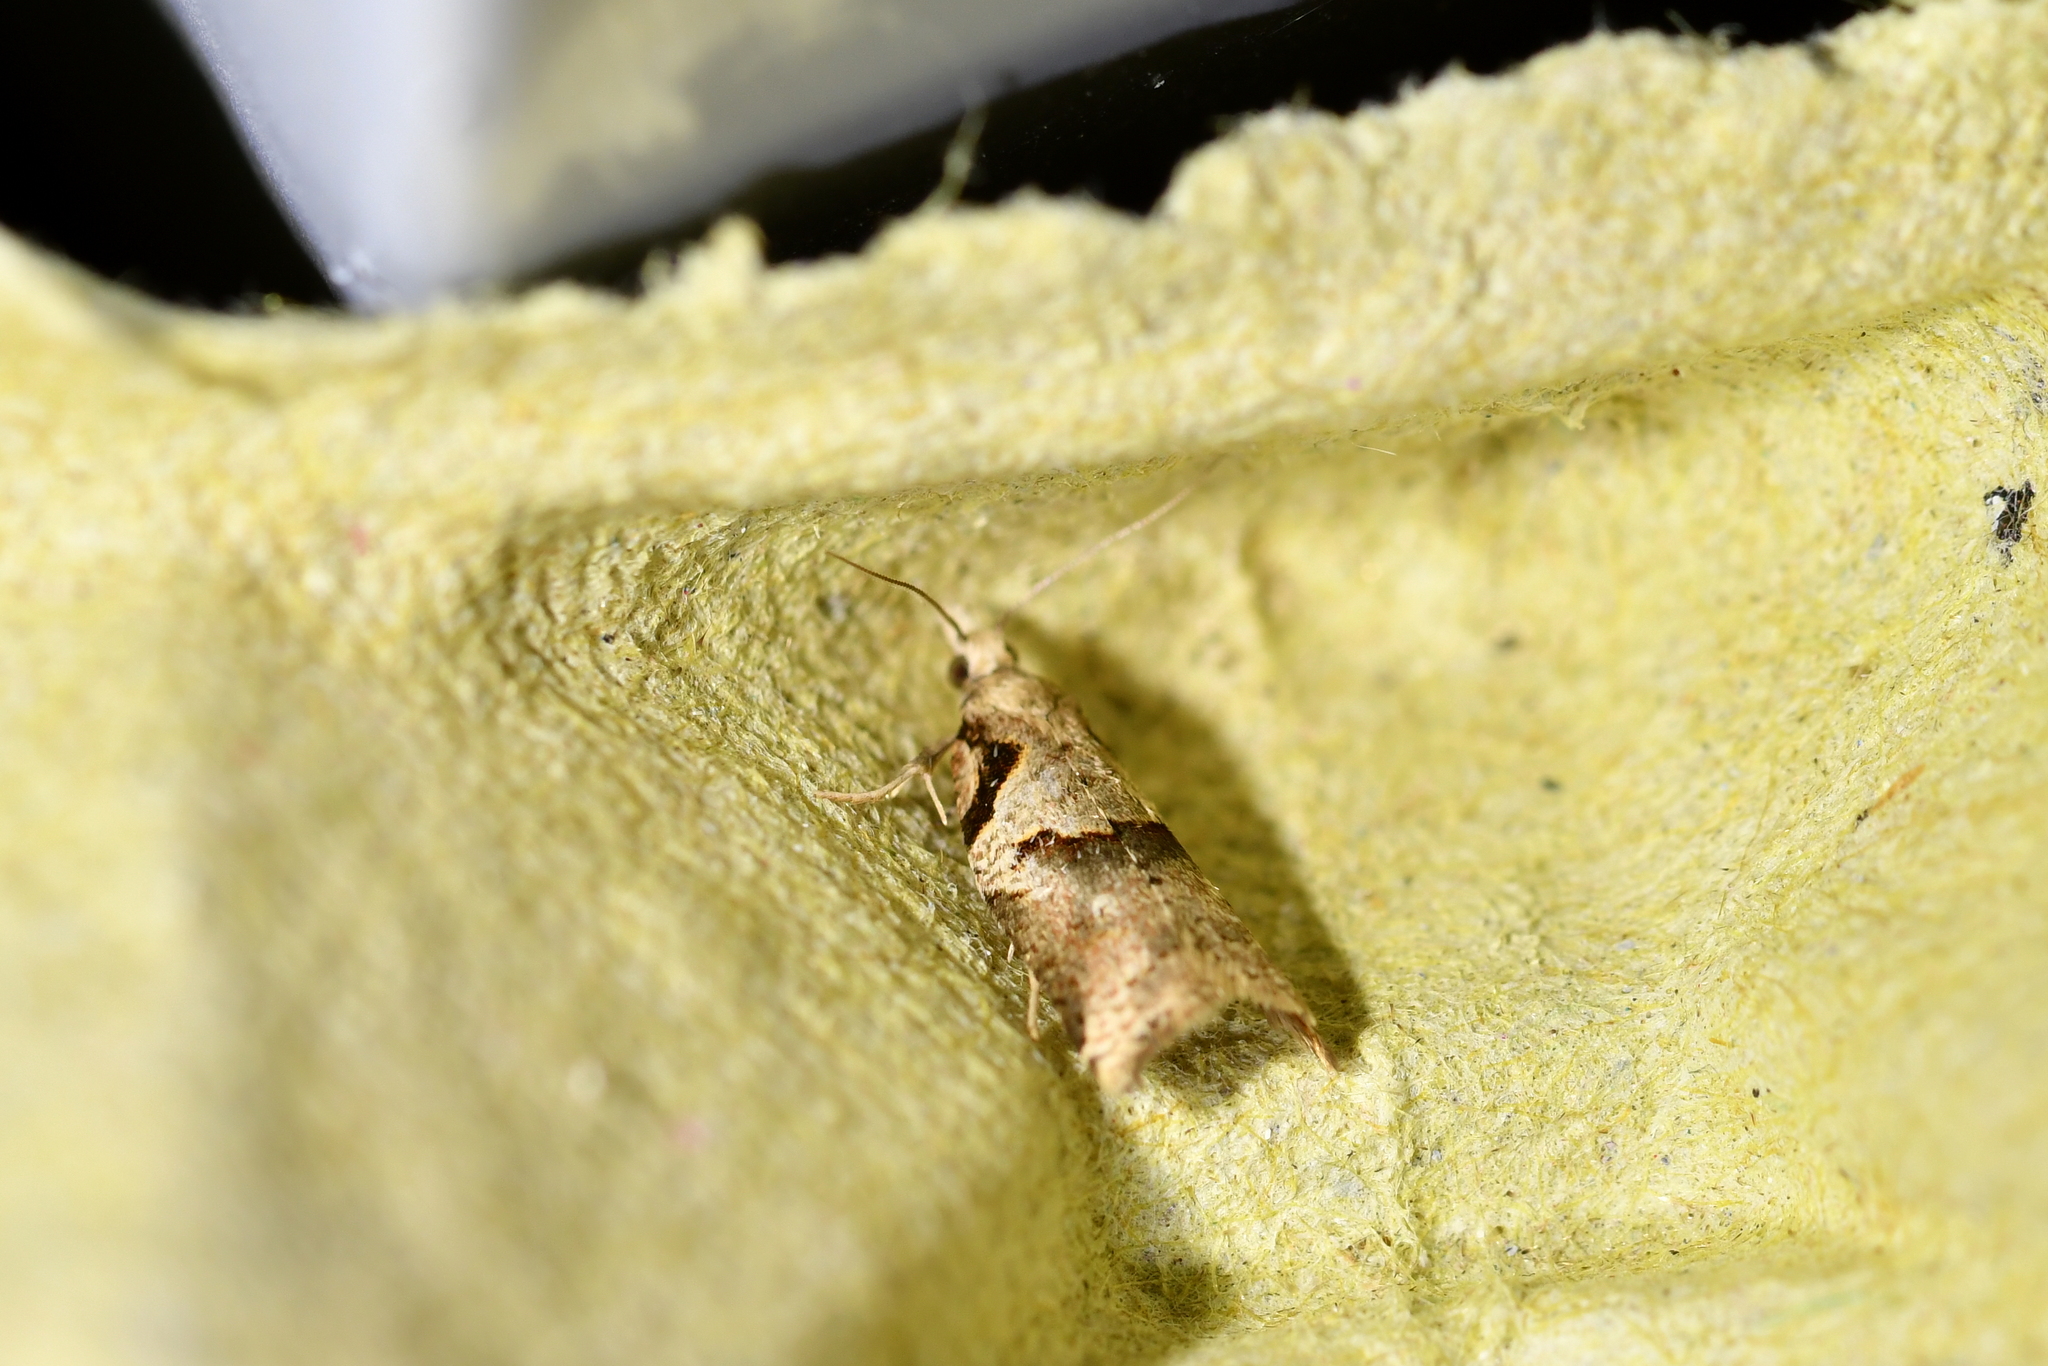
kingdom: Animalia
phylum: Arthropoda
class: Insecta
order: Lepidoptera
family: Tortricidae
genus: Harmologa
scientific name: Harmologa amplexana
